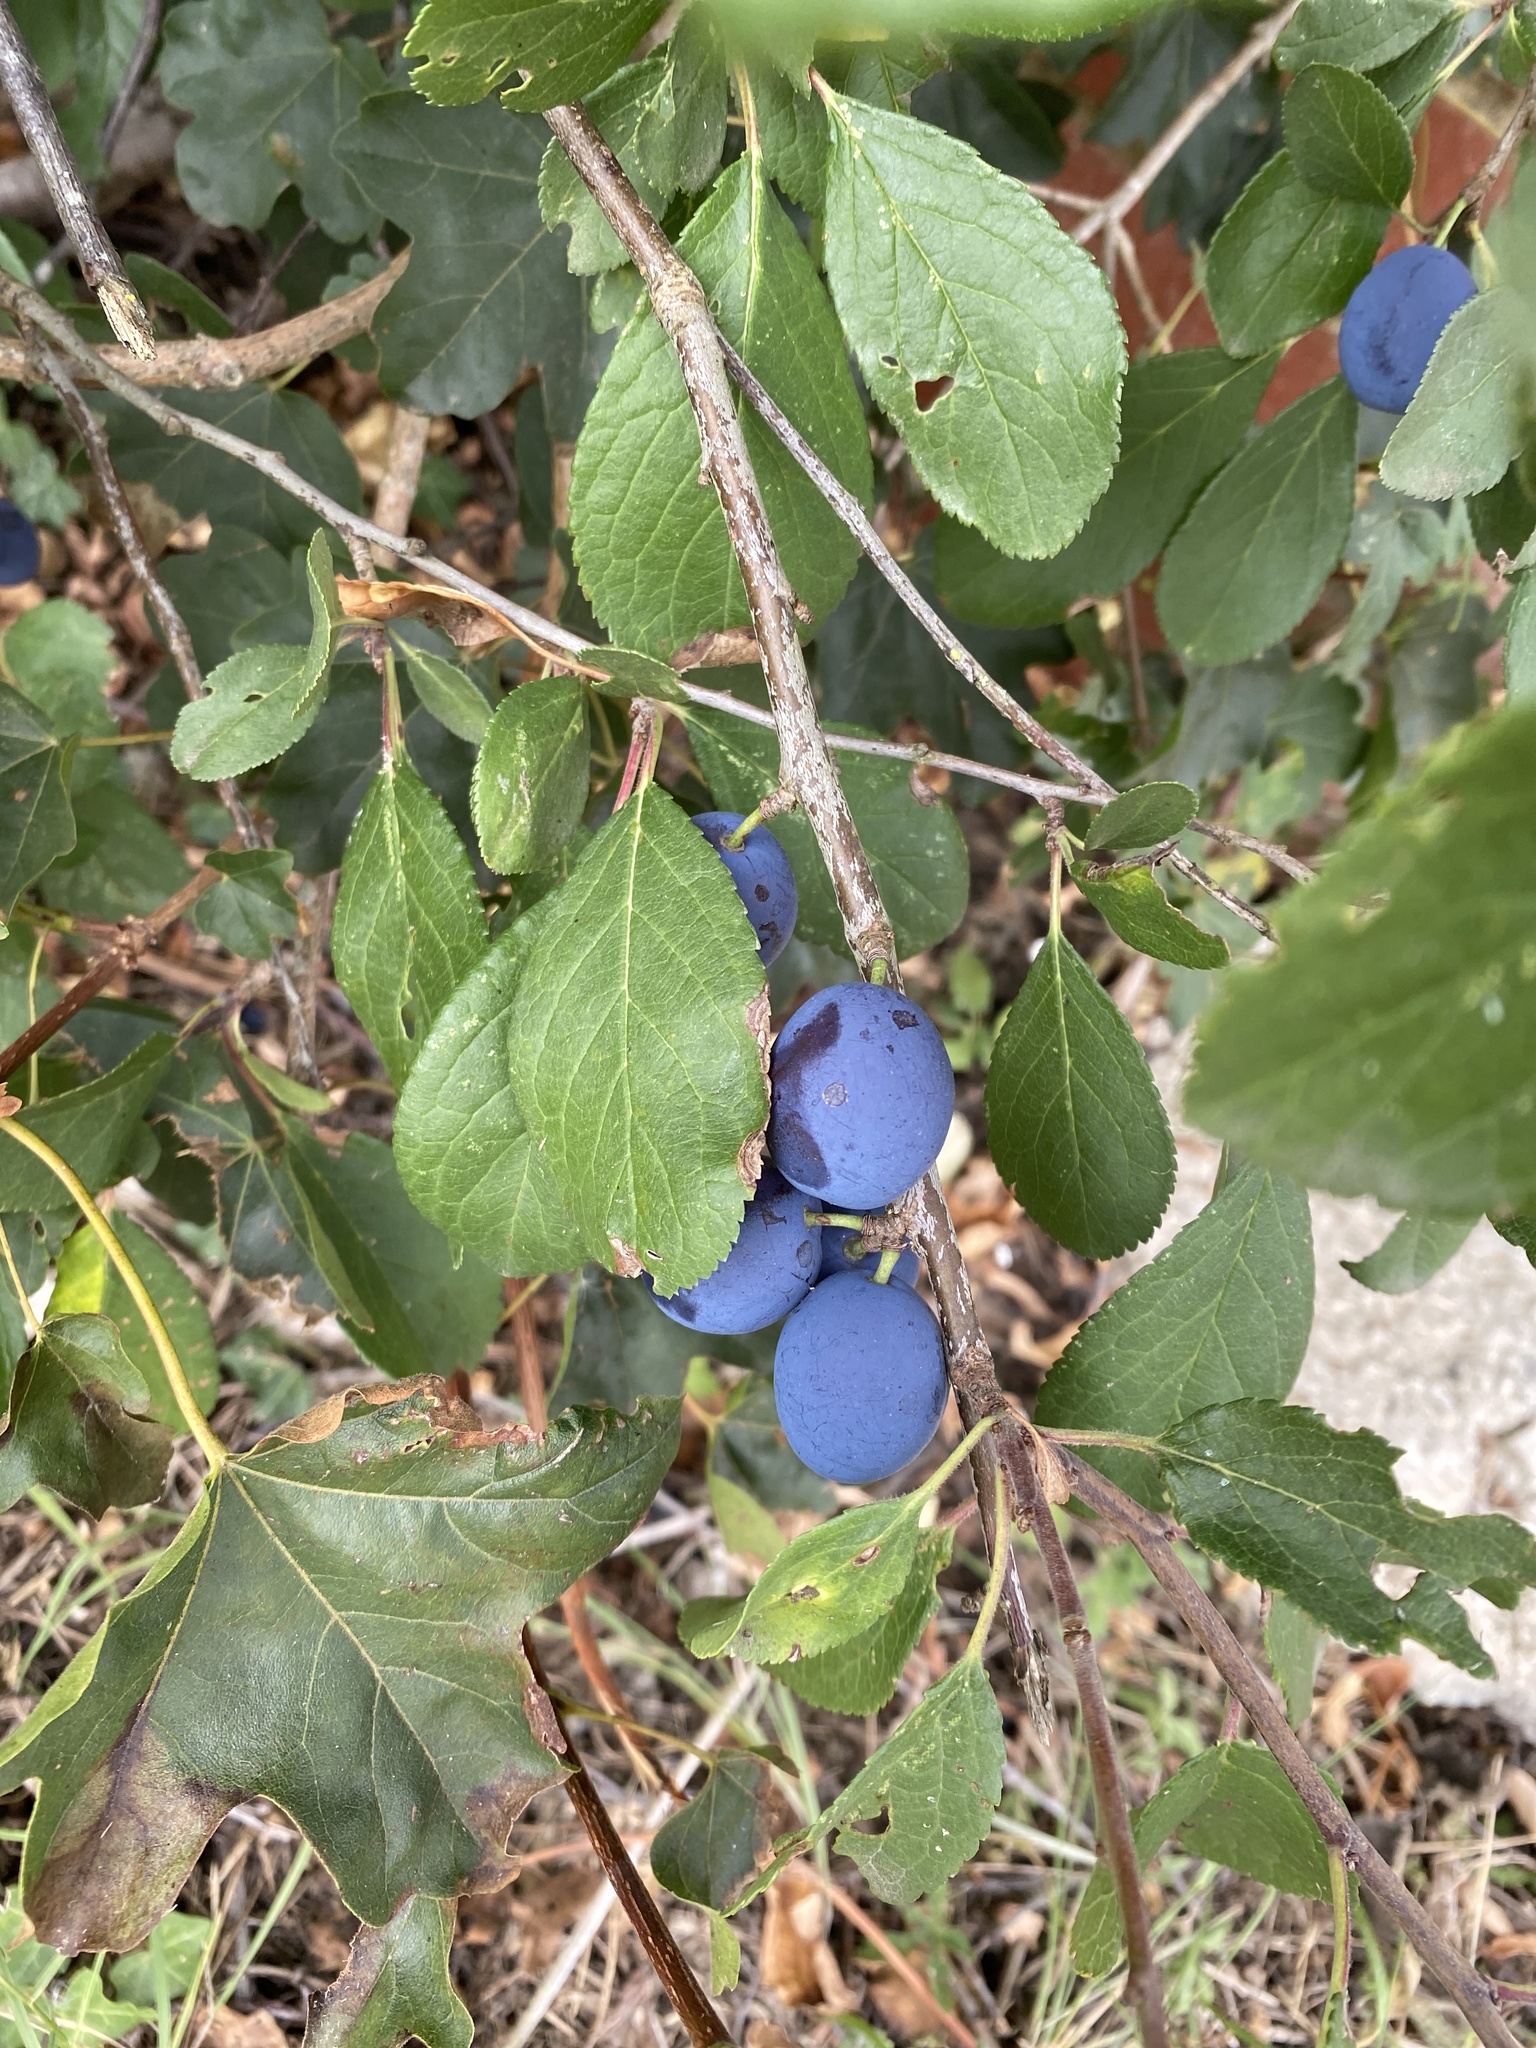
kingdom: Plantae
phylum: Tracheophyta
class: Magnoliopsida
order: Rosales
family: Rosaceae
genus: Prunus
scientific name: Prunus spinosa
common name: Blackthorn
